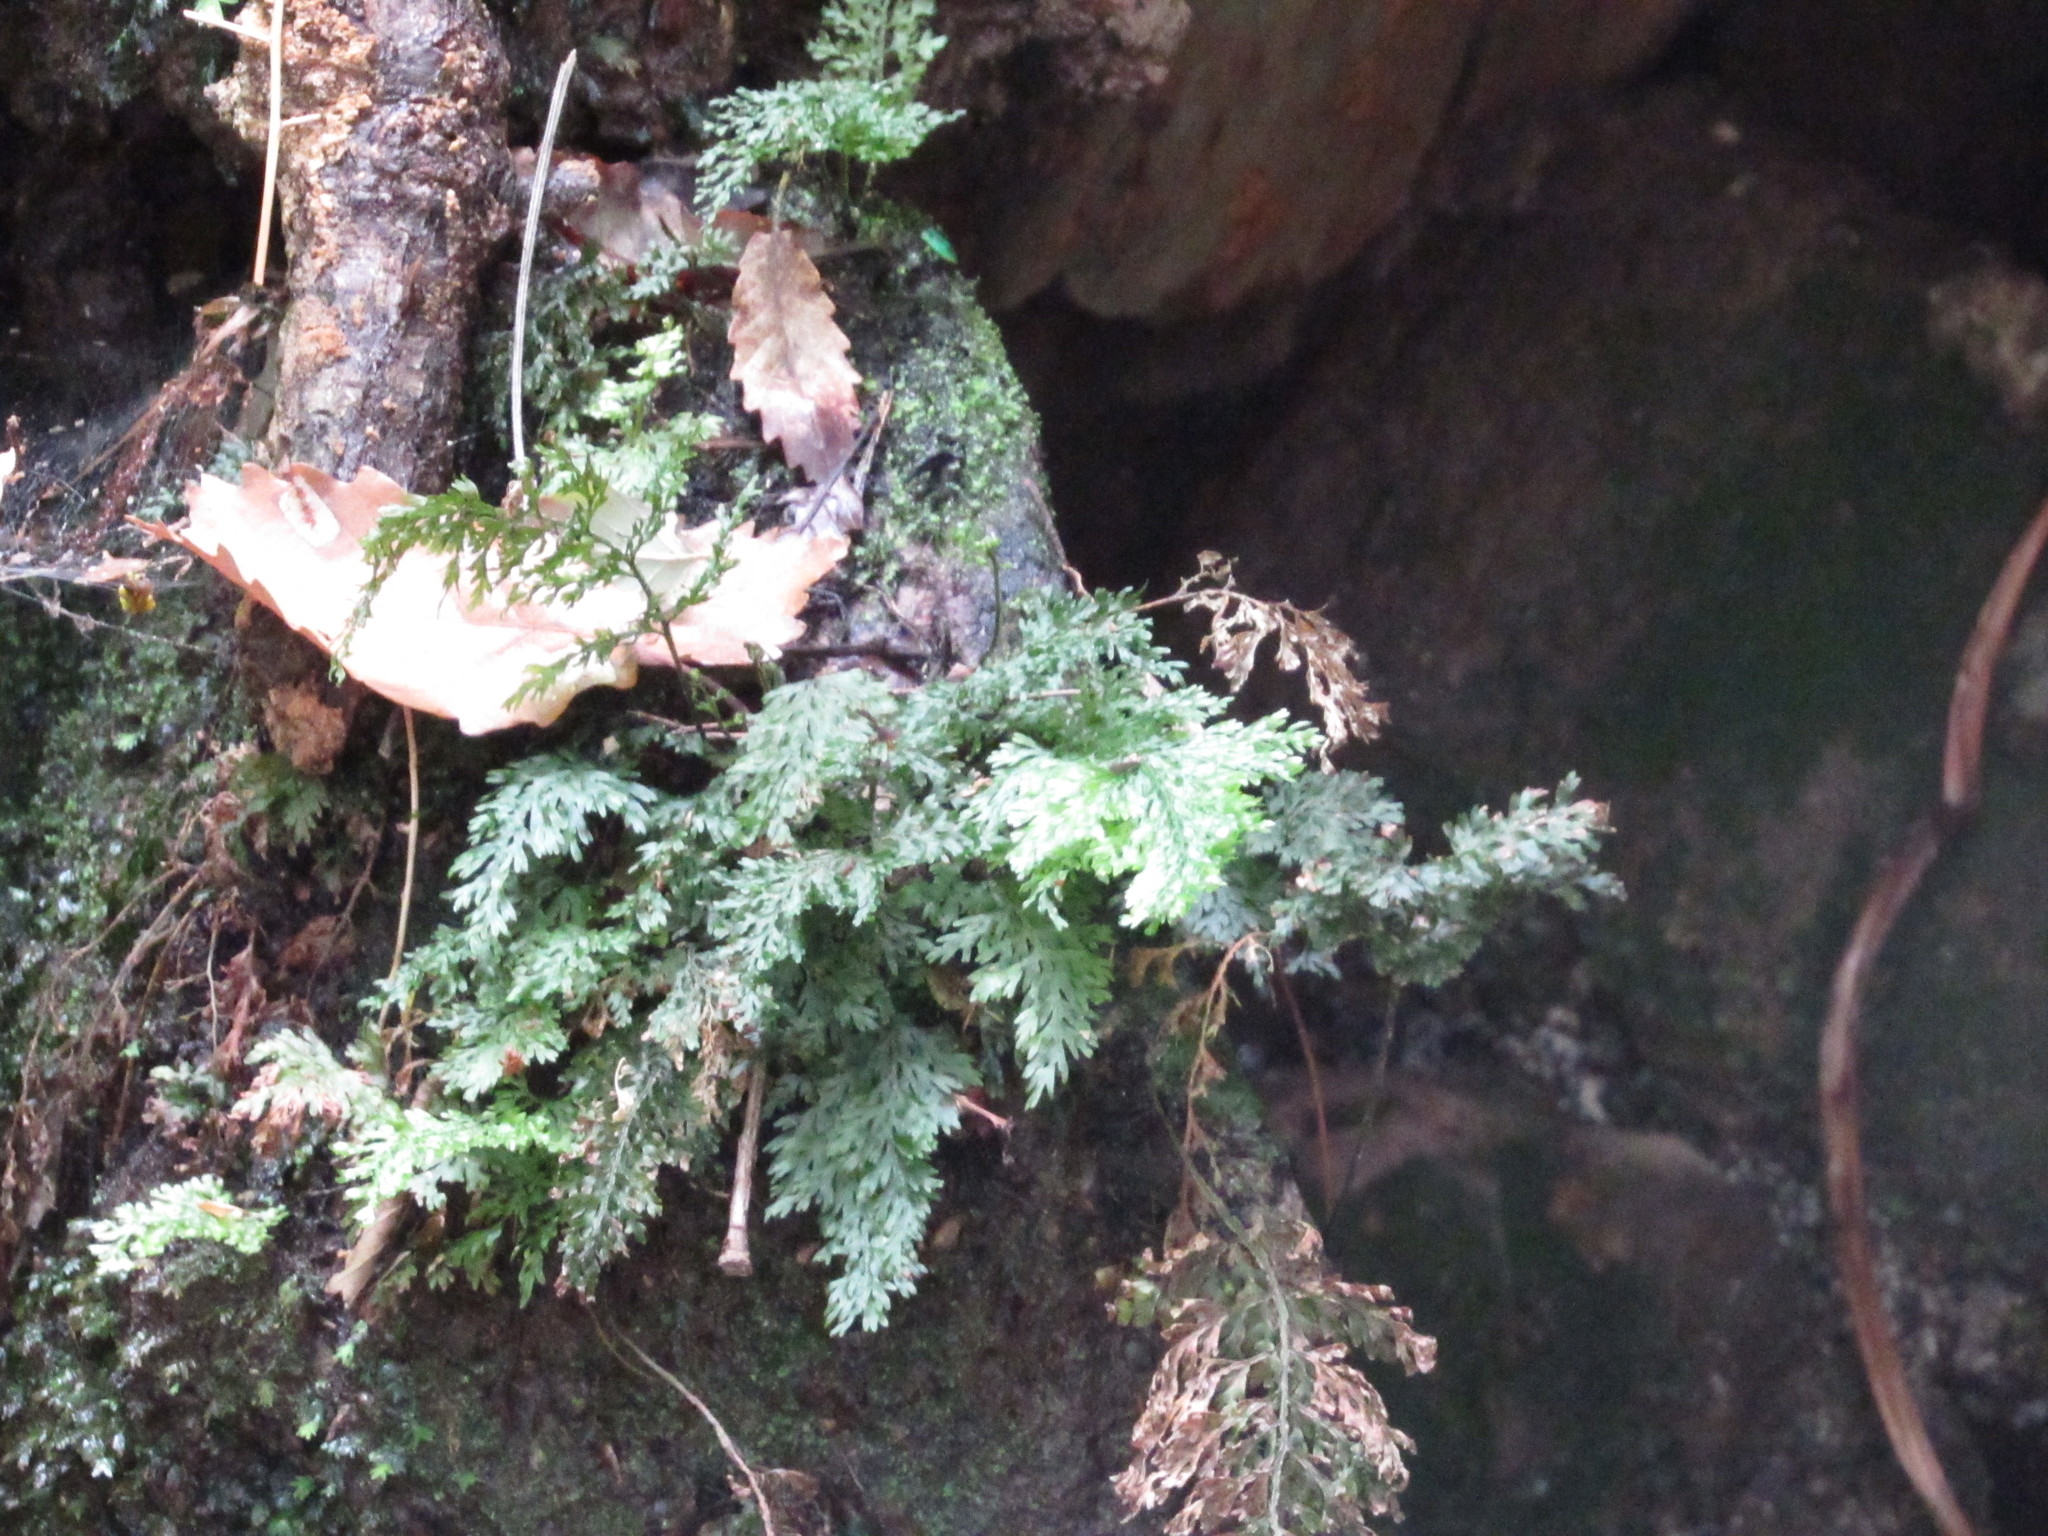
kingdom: Plantae
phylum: Tracheophyta
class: Polypodiopsida
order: Hymenophyllales
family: Hymenophyllaceae
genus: Vandenboschia
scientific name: Vandenboschia speciosa
